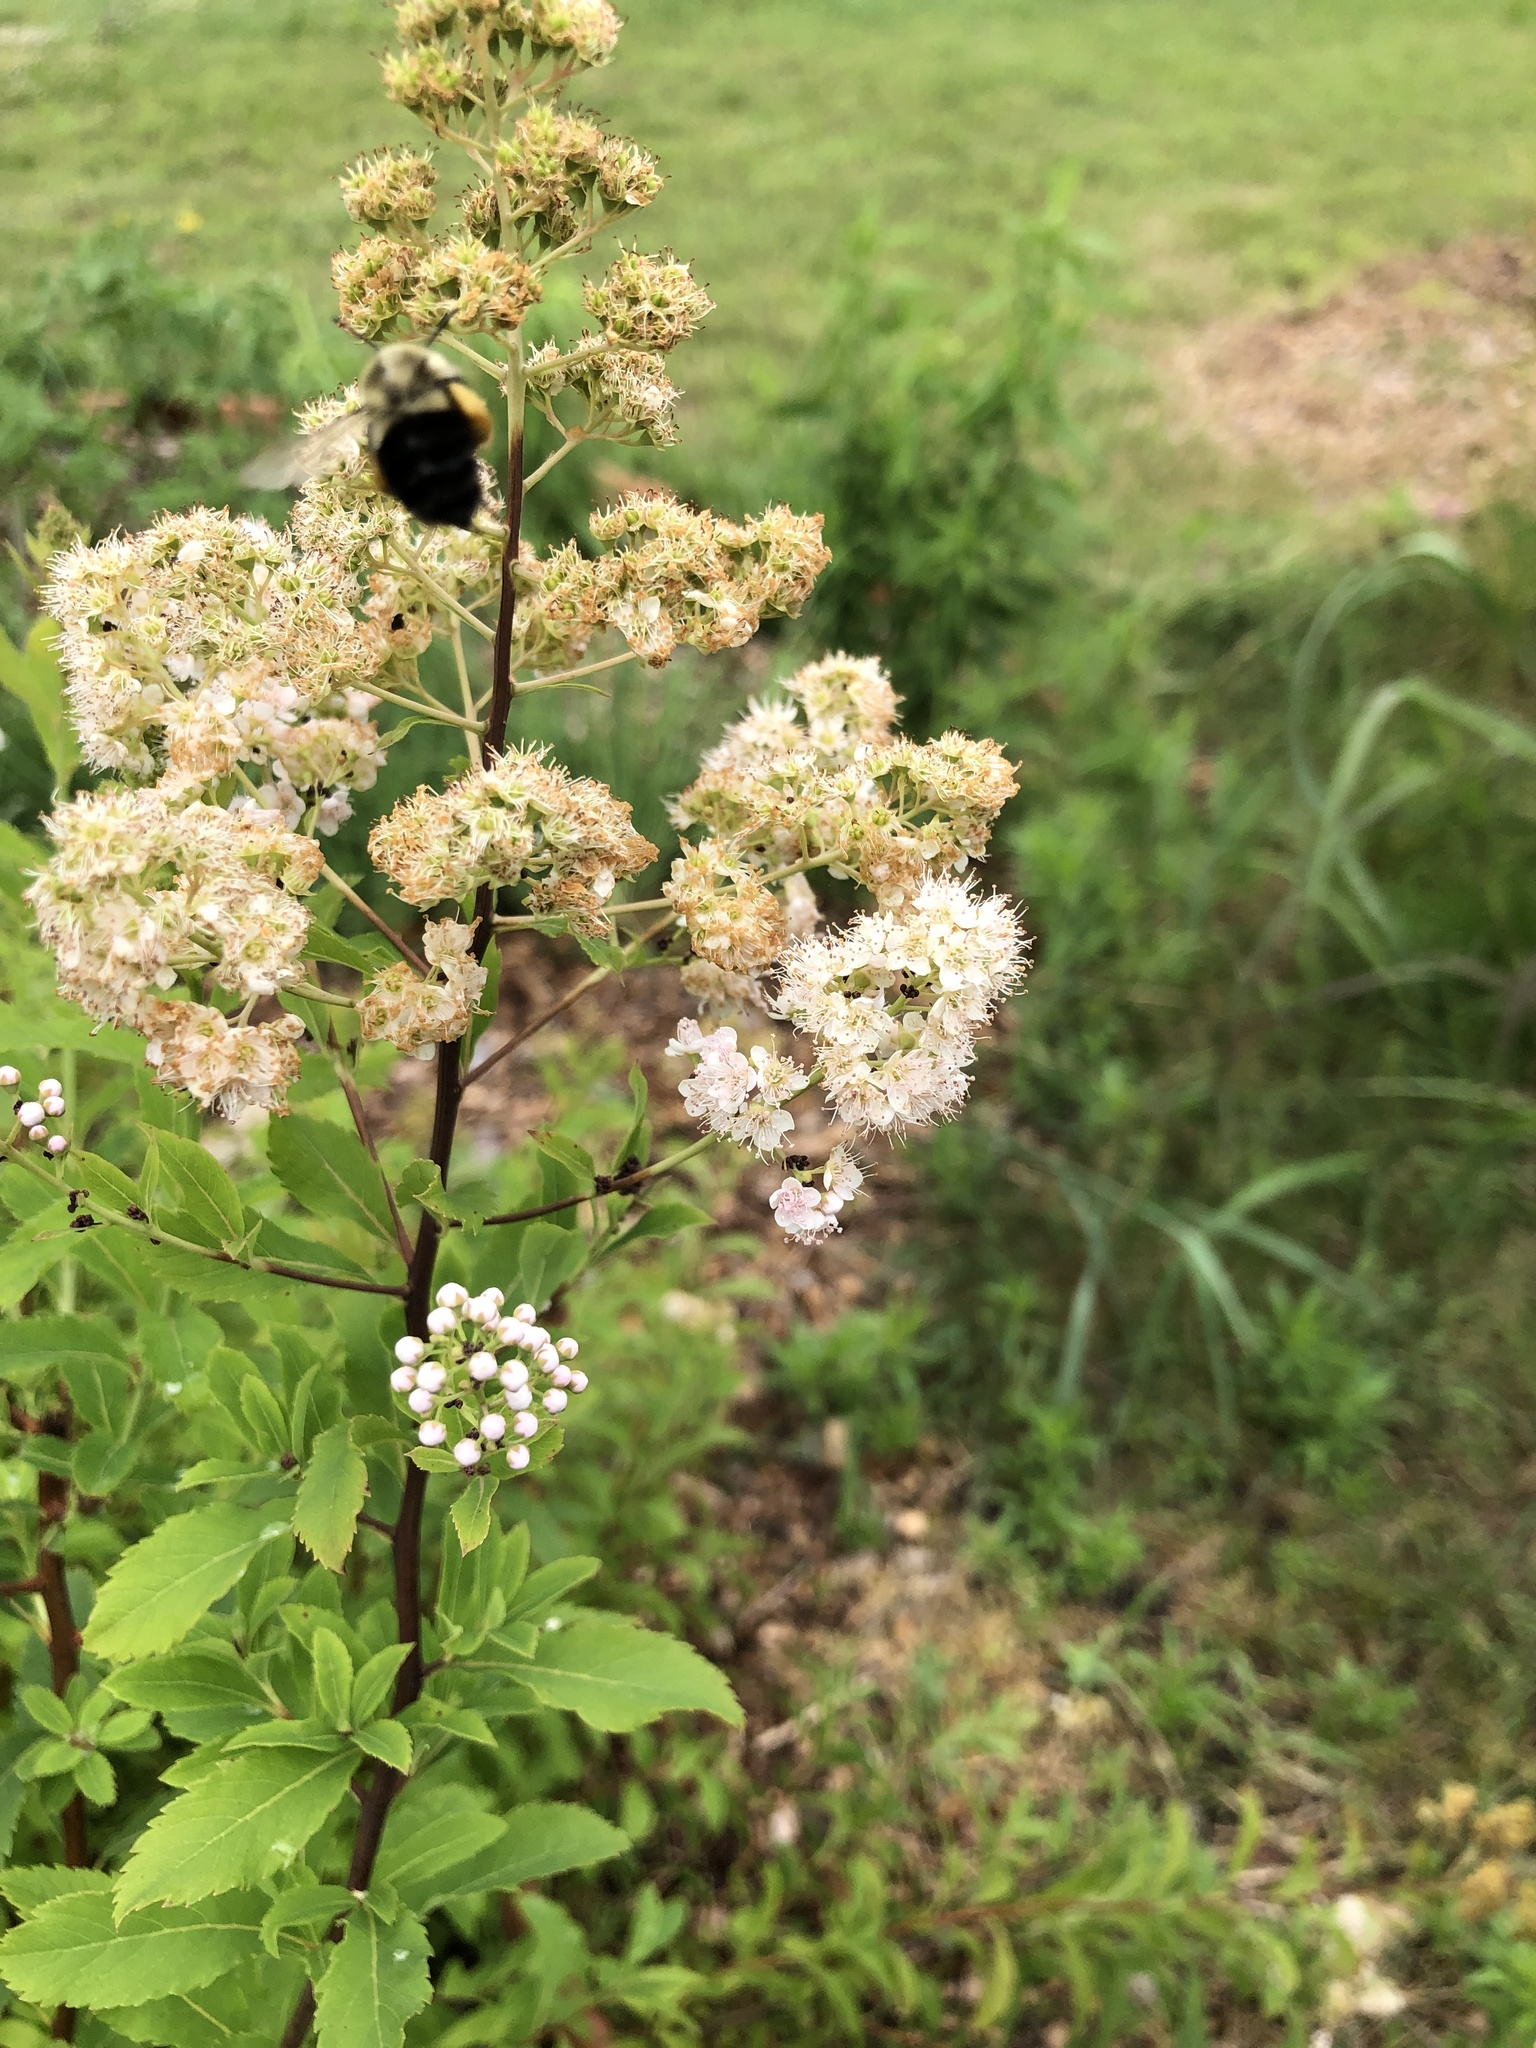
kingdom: Animalia
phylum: Arthropoda
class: Insecta
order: Hymenoptera
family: Apidae
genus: Bombus
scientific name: Bombus impatiens
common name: Common eastern bumble bee
